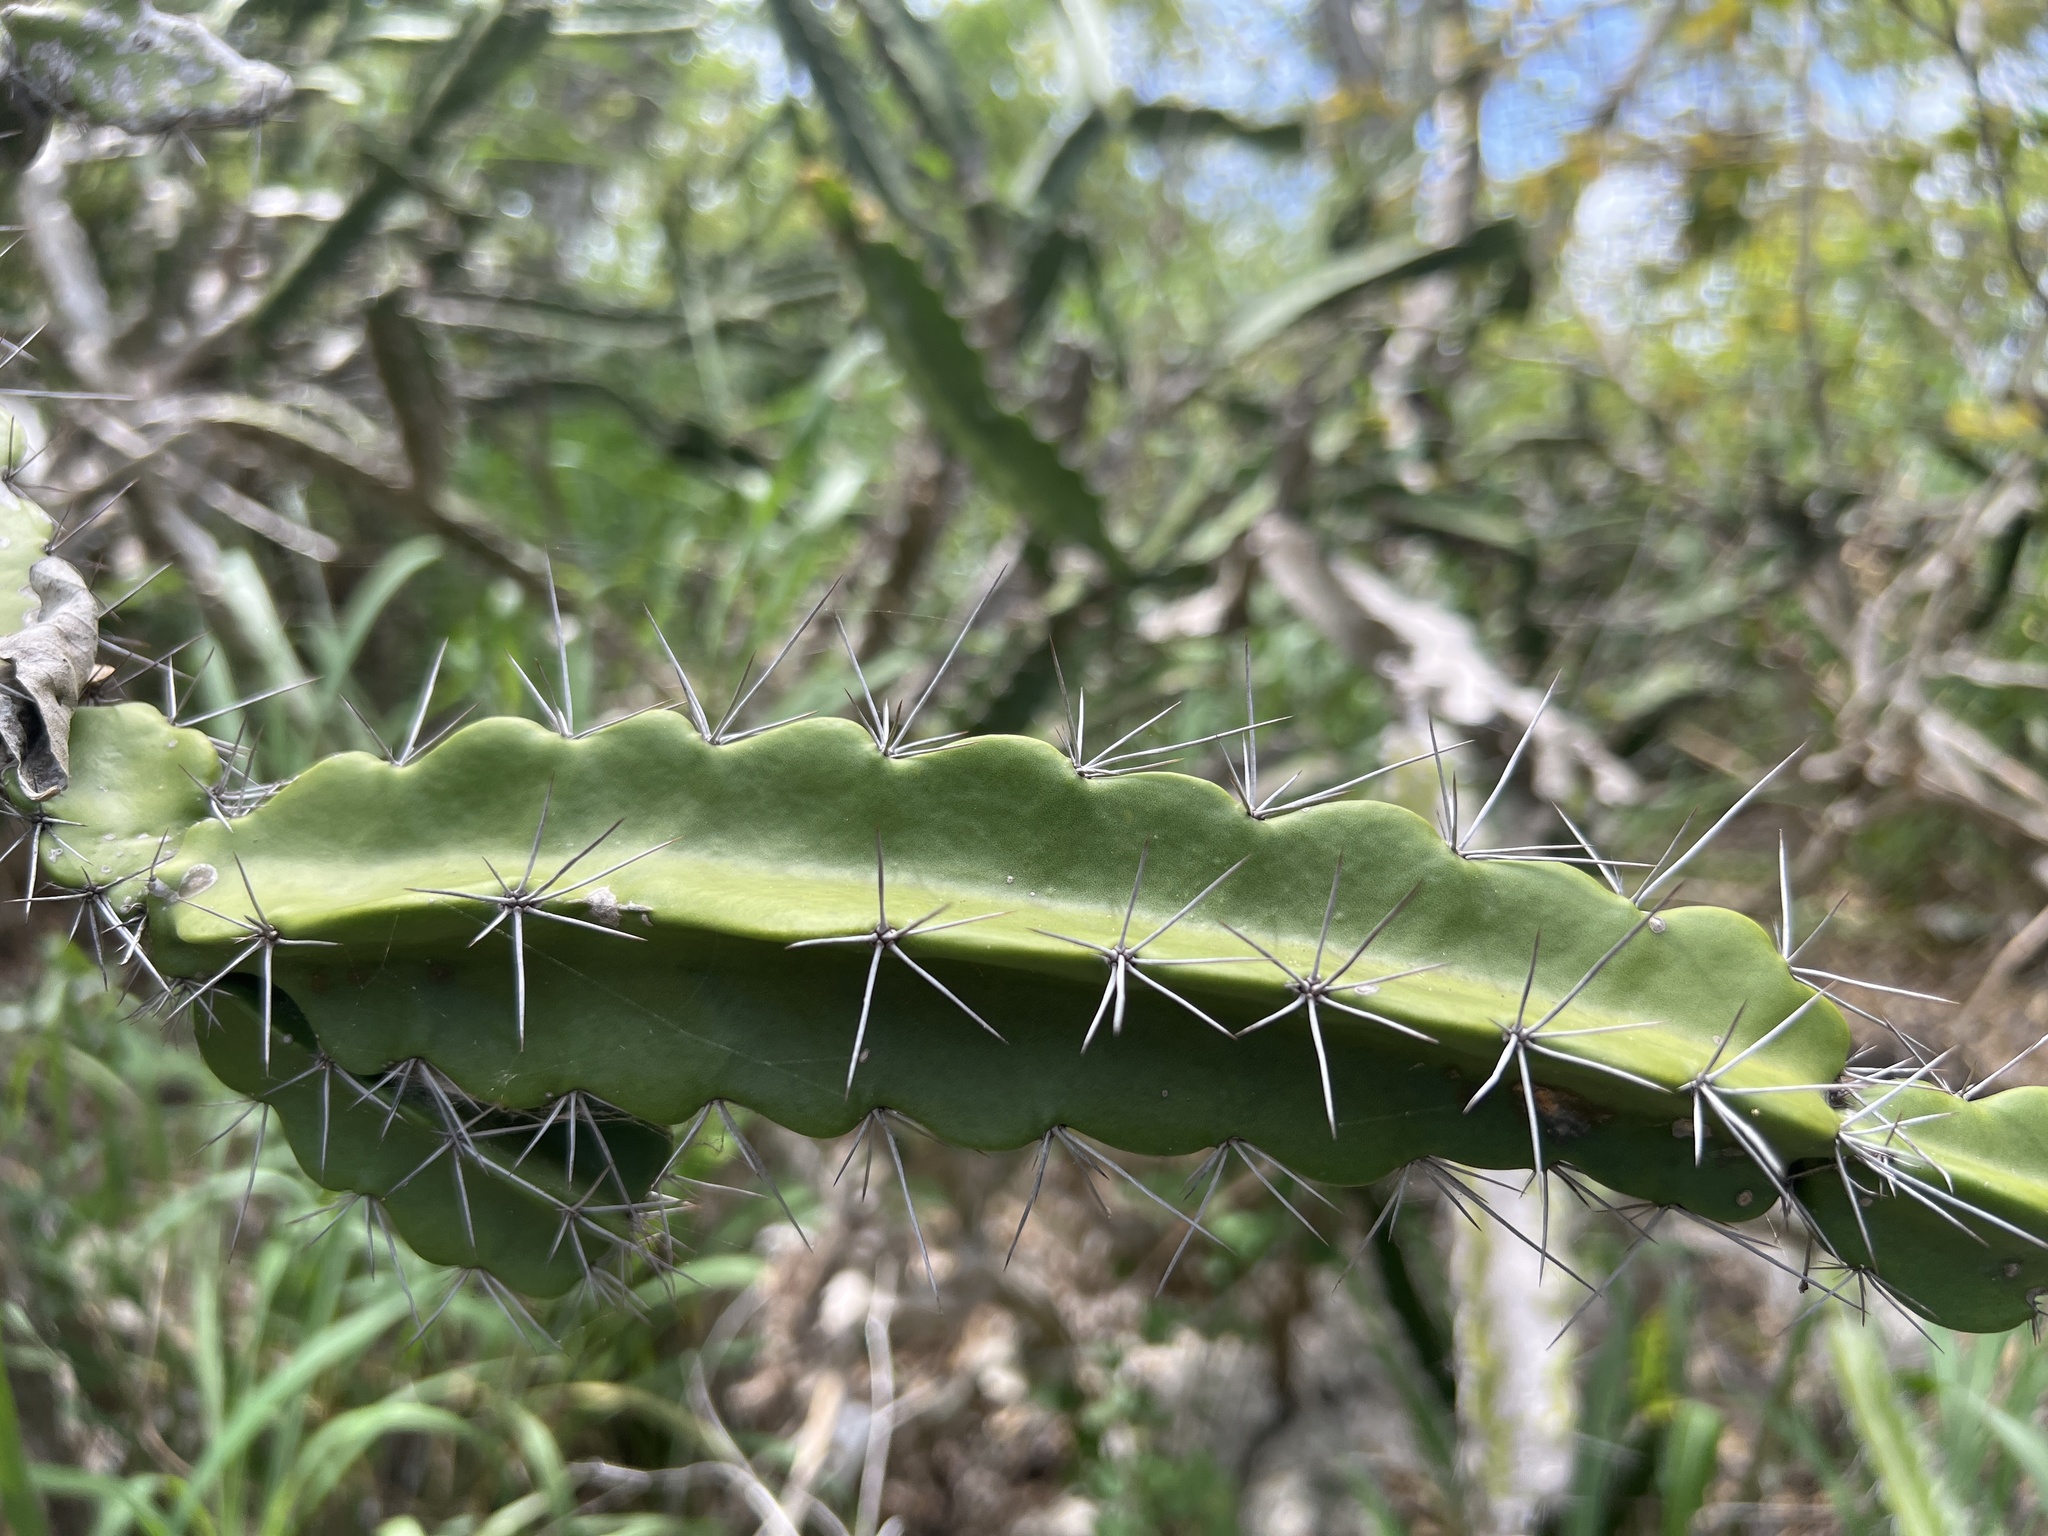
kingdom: Plantae
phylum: Tracheophyta
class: Magnoliopsida
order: Caryophyllales
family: Cactaceae
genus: Leptocereus
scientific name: Leptocereus quadricostatus
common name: Sebucan
